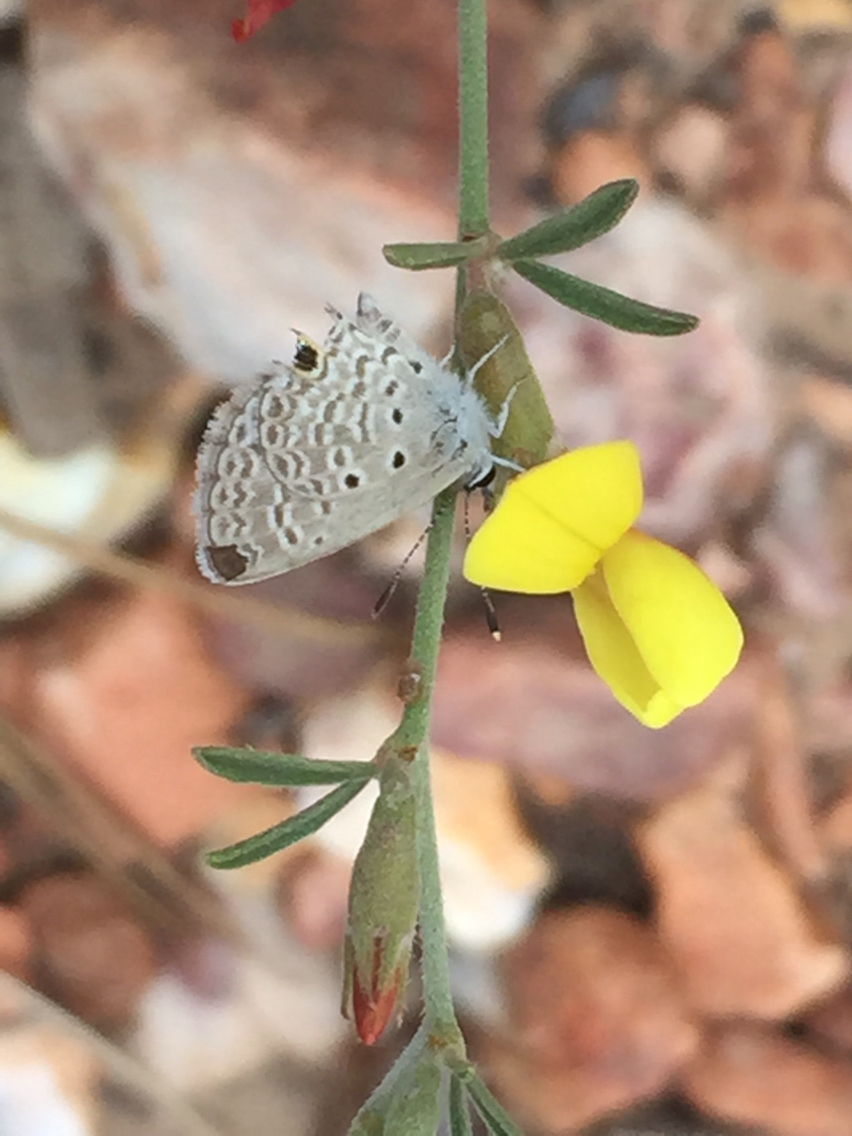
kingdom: Animalia
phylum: Arthropoda
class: Insecta
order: Lepidoptera
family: Lycaenidae
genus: Hemiargus
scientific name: Hemiargus ceraunus
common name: Ceraunus blue
